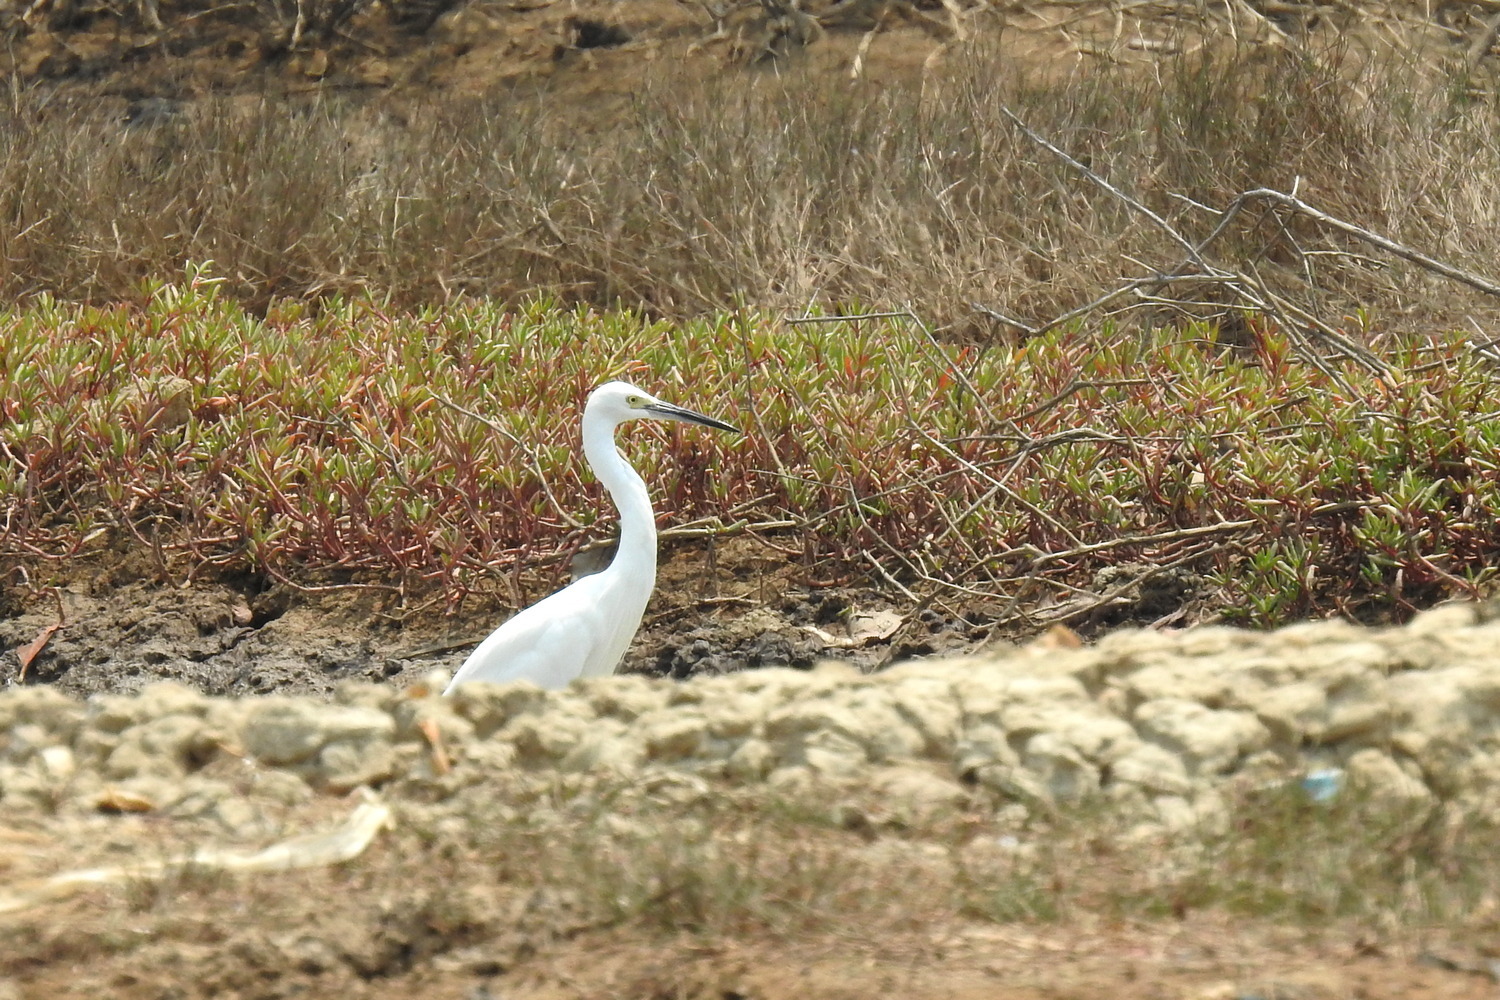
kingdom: Animalia
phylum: Chordata
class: Aves
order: Pelecaniformes
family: Ardeidae
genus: Egretta
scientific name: Egretta garzetta
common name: Little egret
